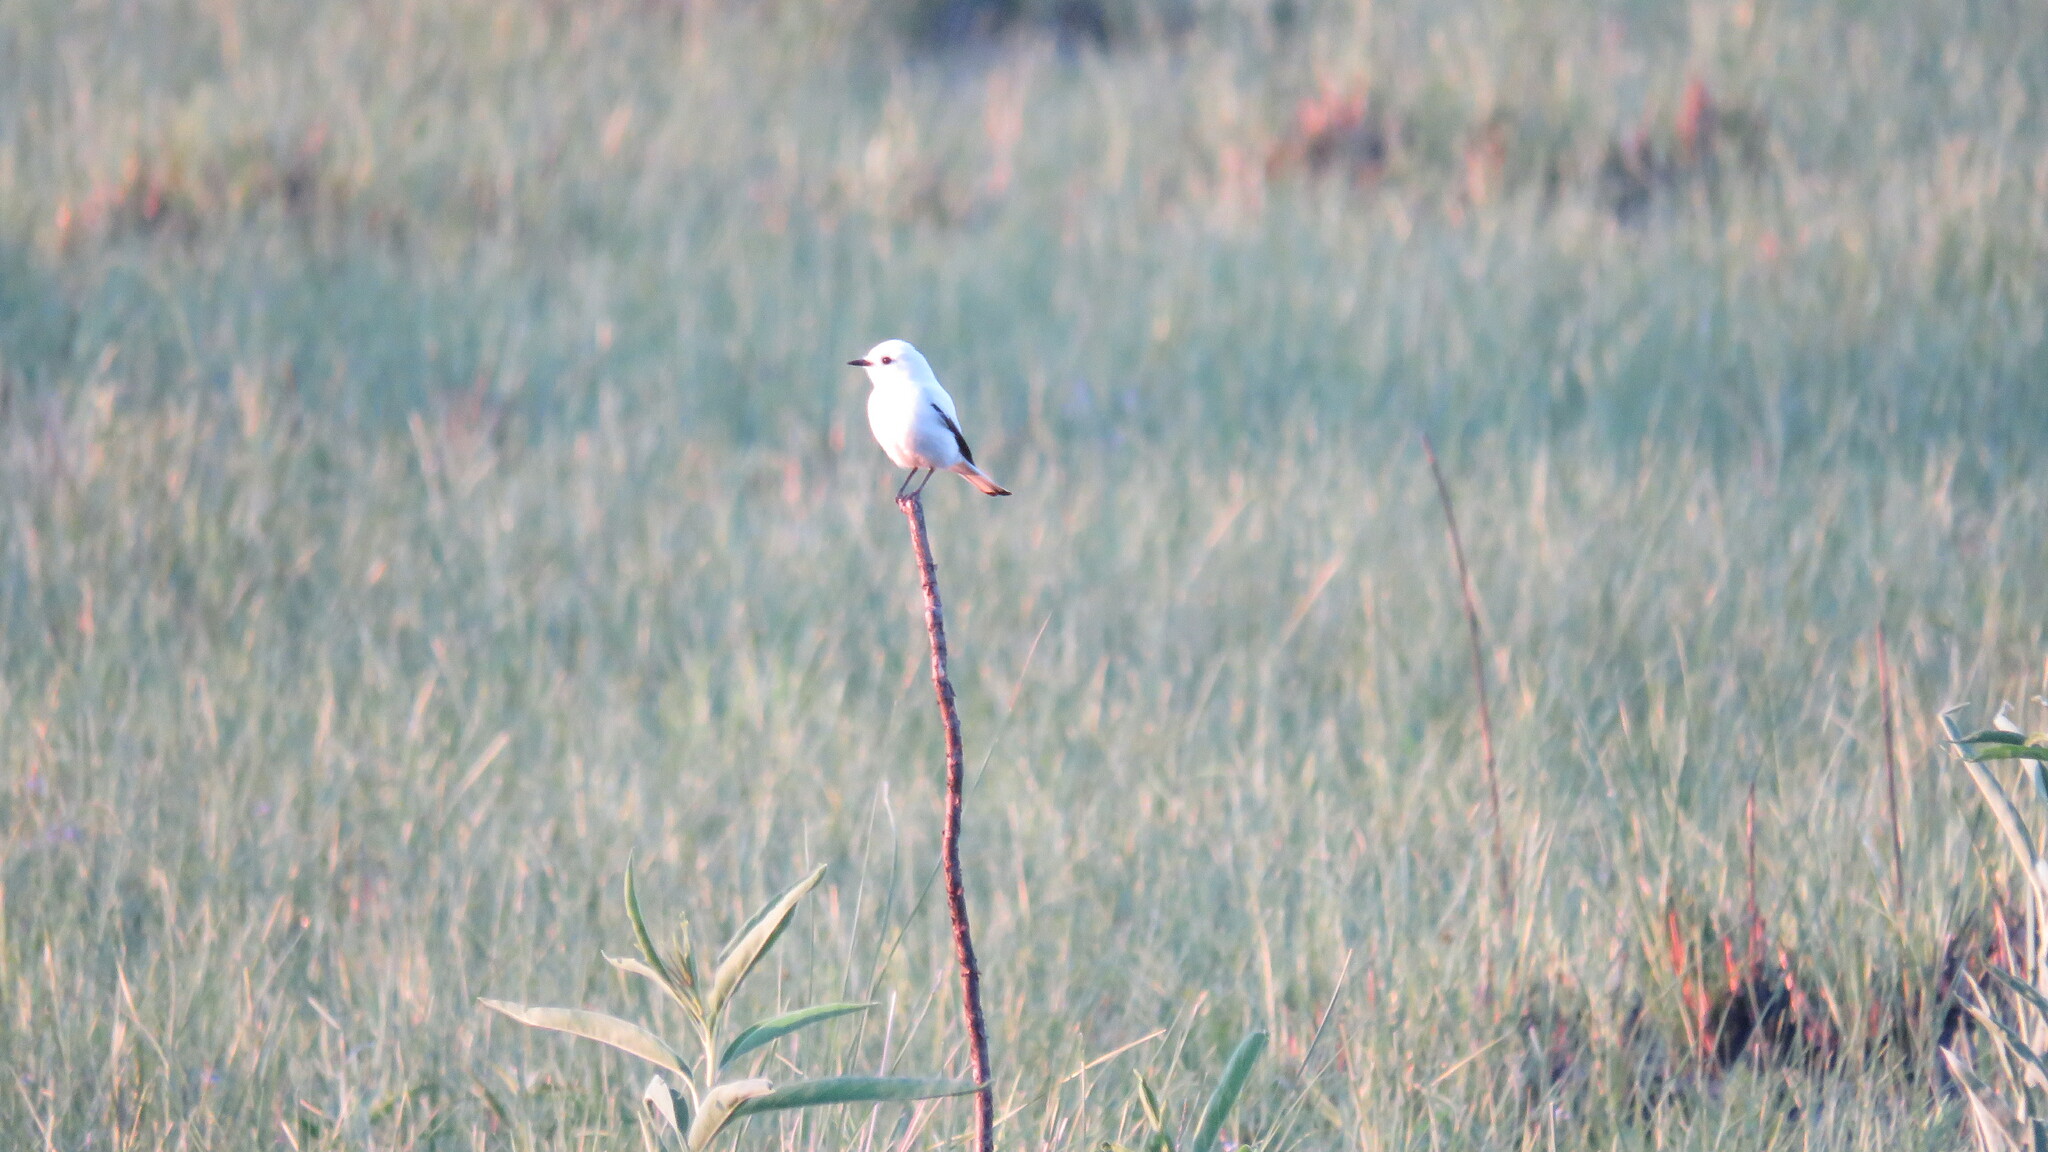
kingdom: Animalia
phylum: Chordata
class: Aves
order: Passeriformes
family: Tyrannidae
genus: Xolmis
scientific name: Xolmis irupero
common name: White monjita
